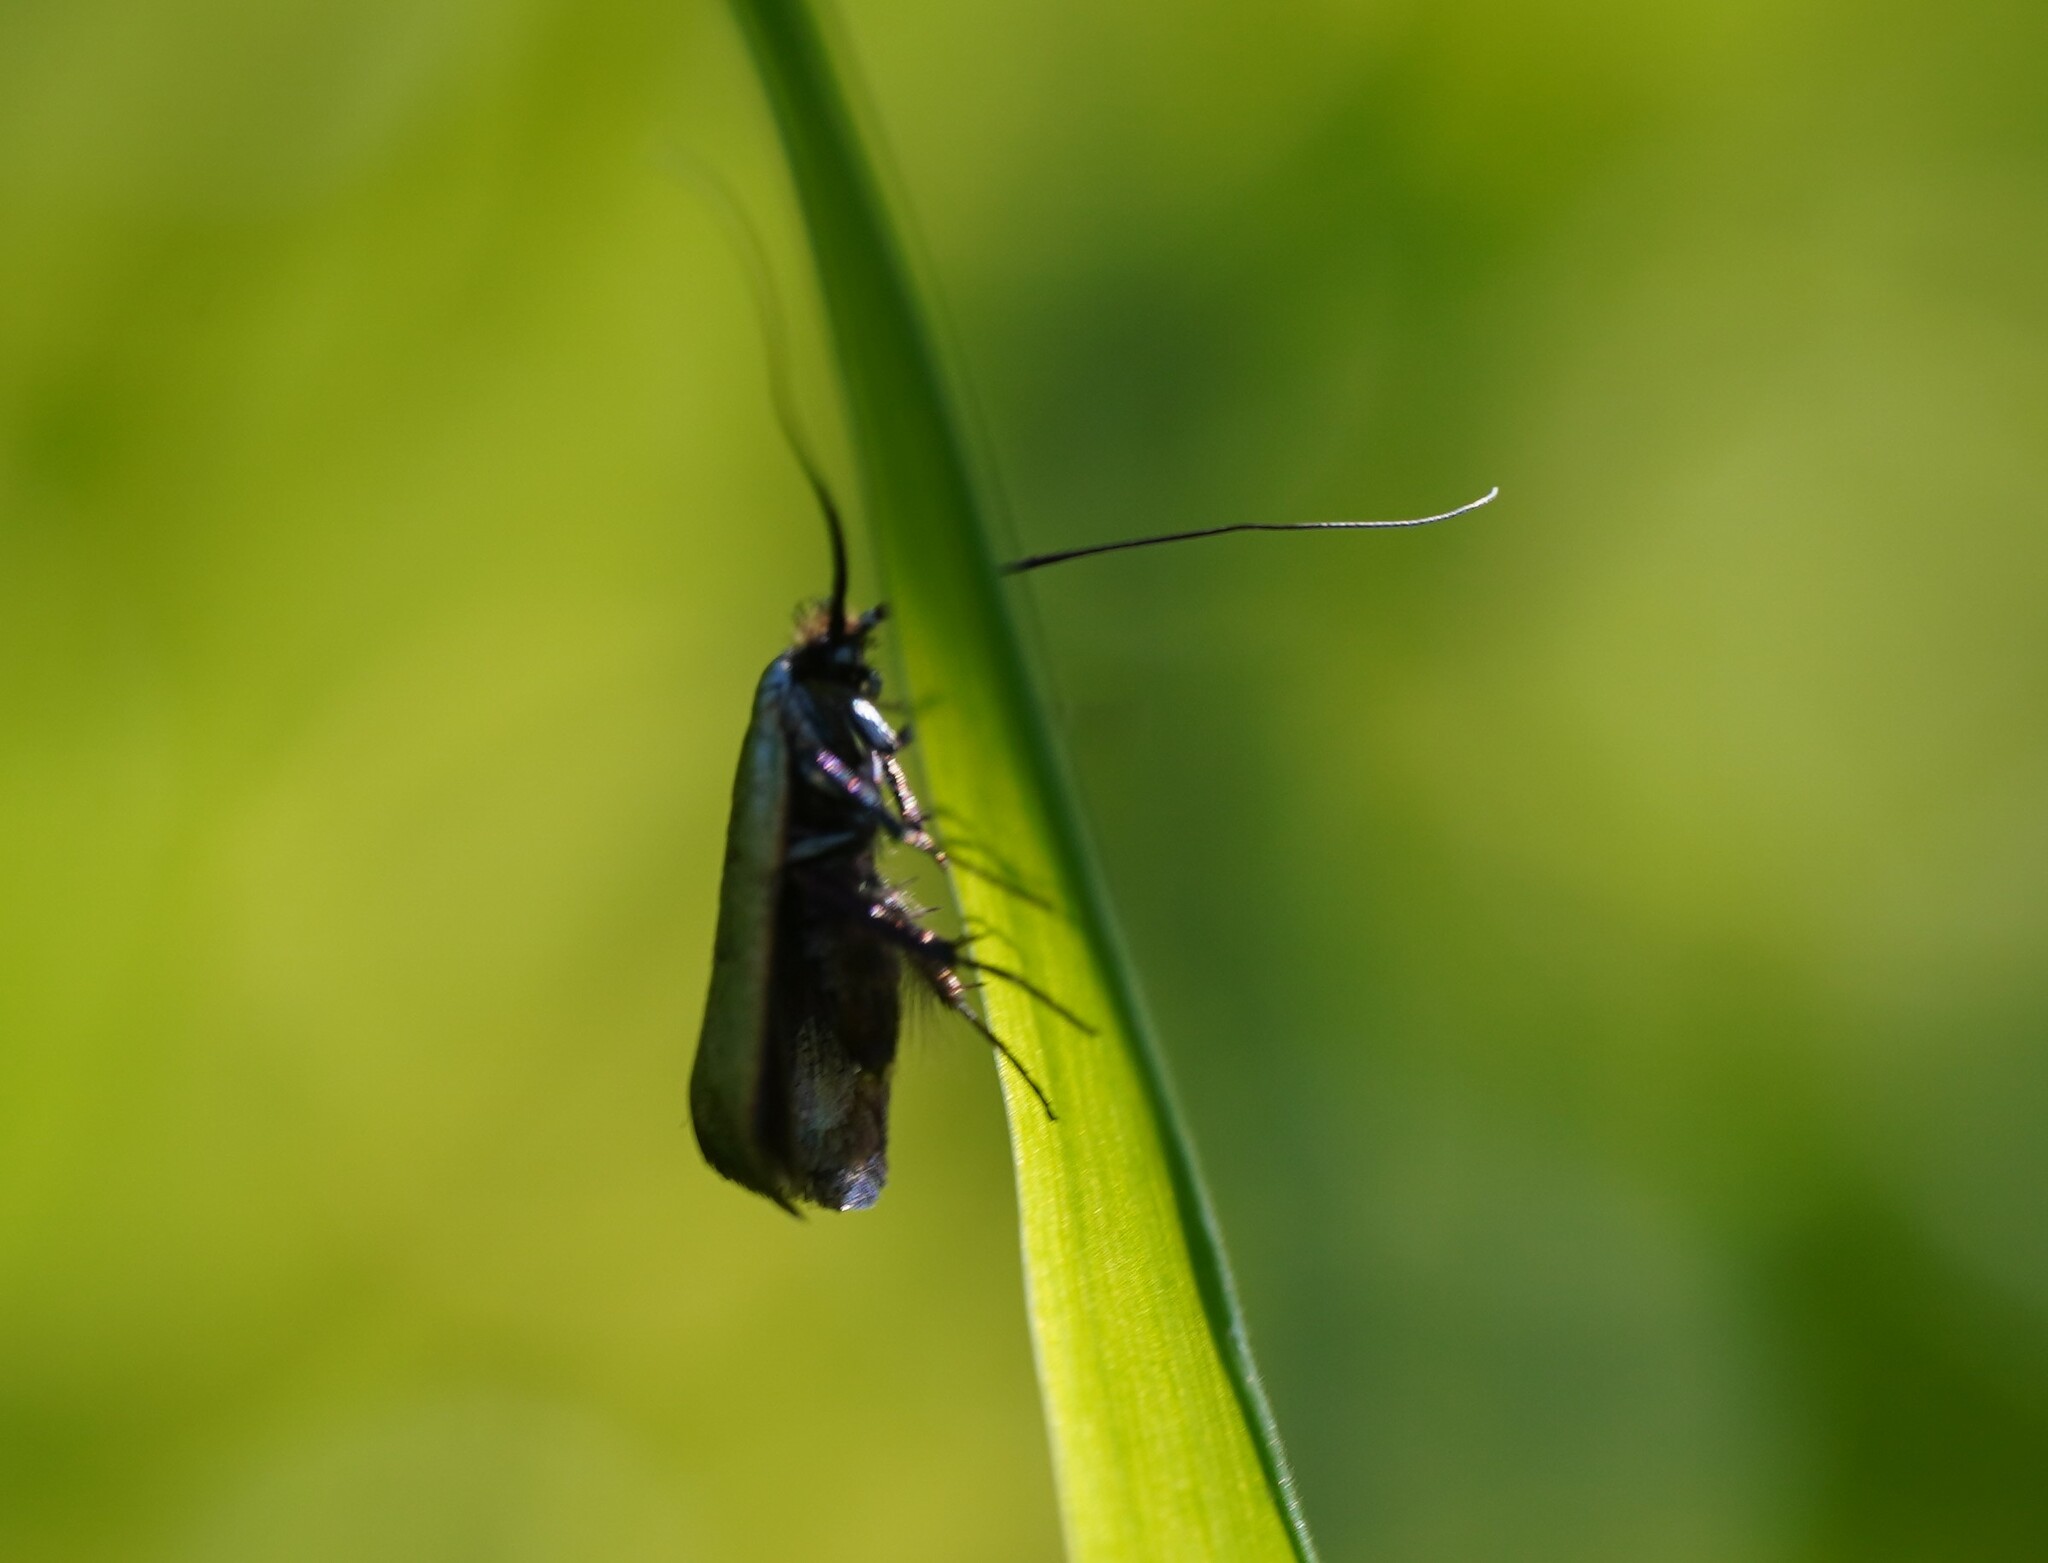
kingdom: Animalia
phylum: Arthropoda
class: Insecta
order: Lepidoptera
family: Adelidae
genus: Adela
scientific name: Adela viridella
